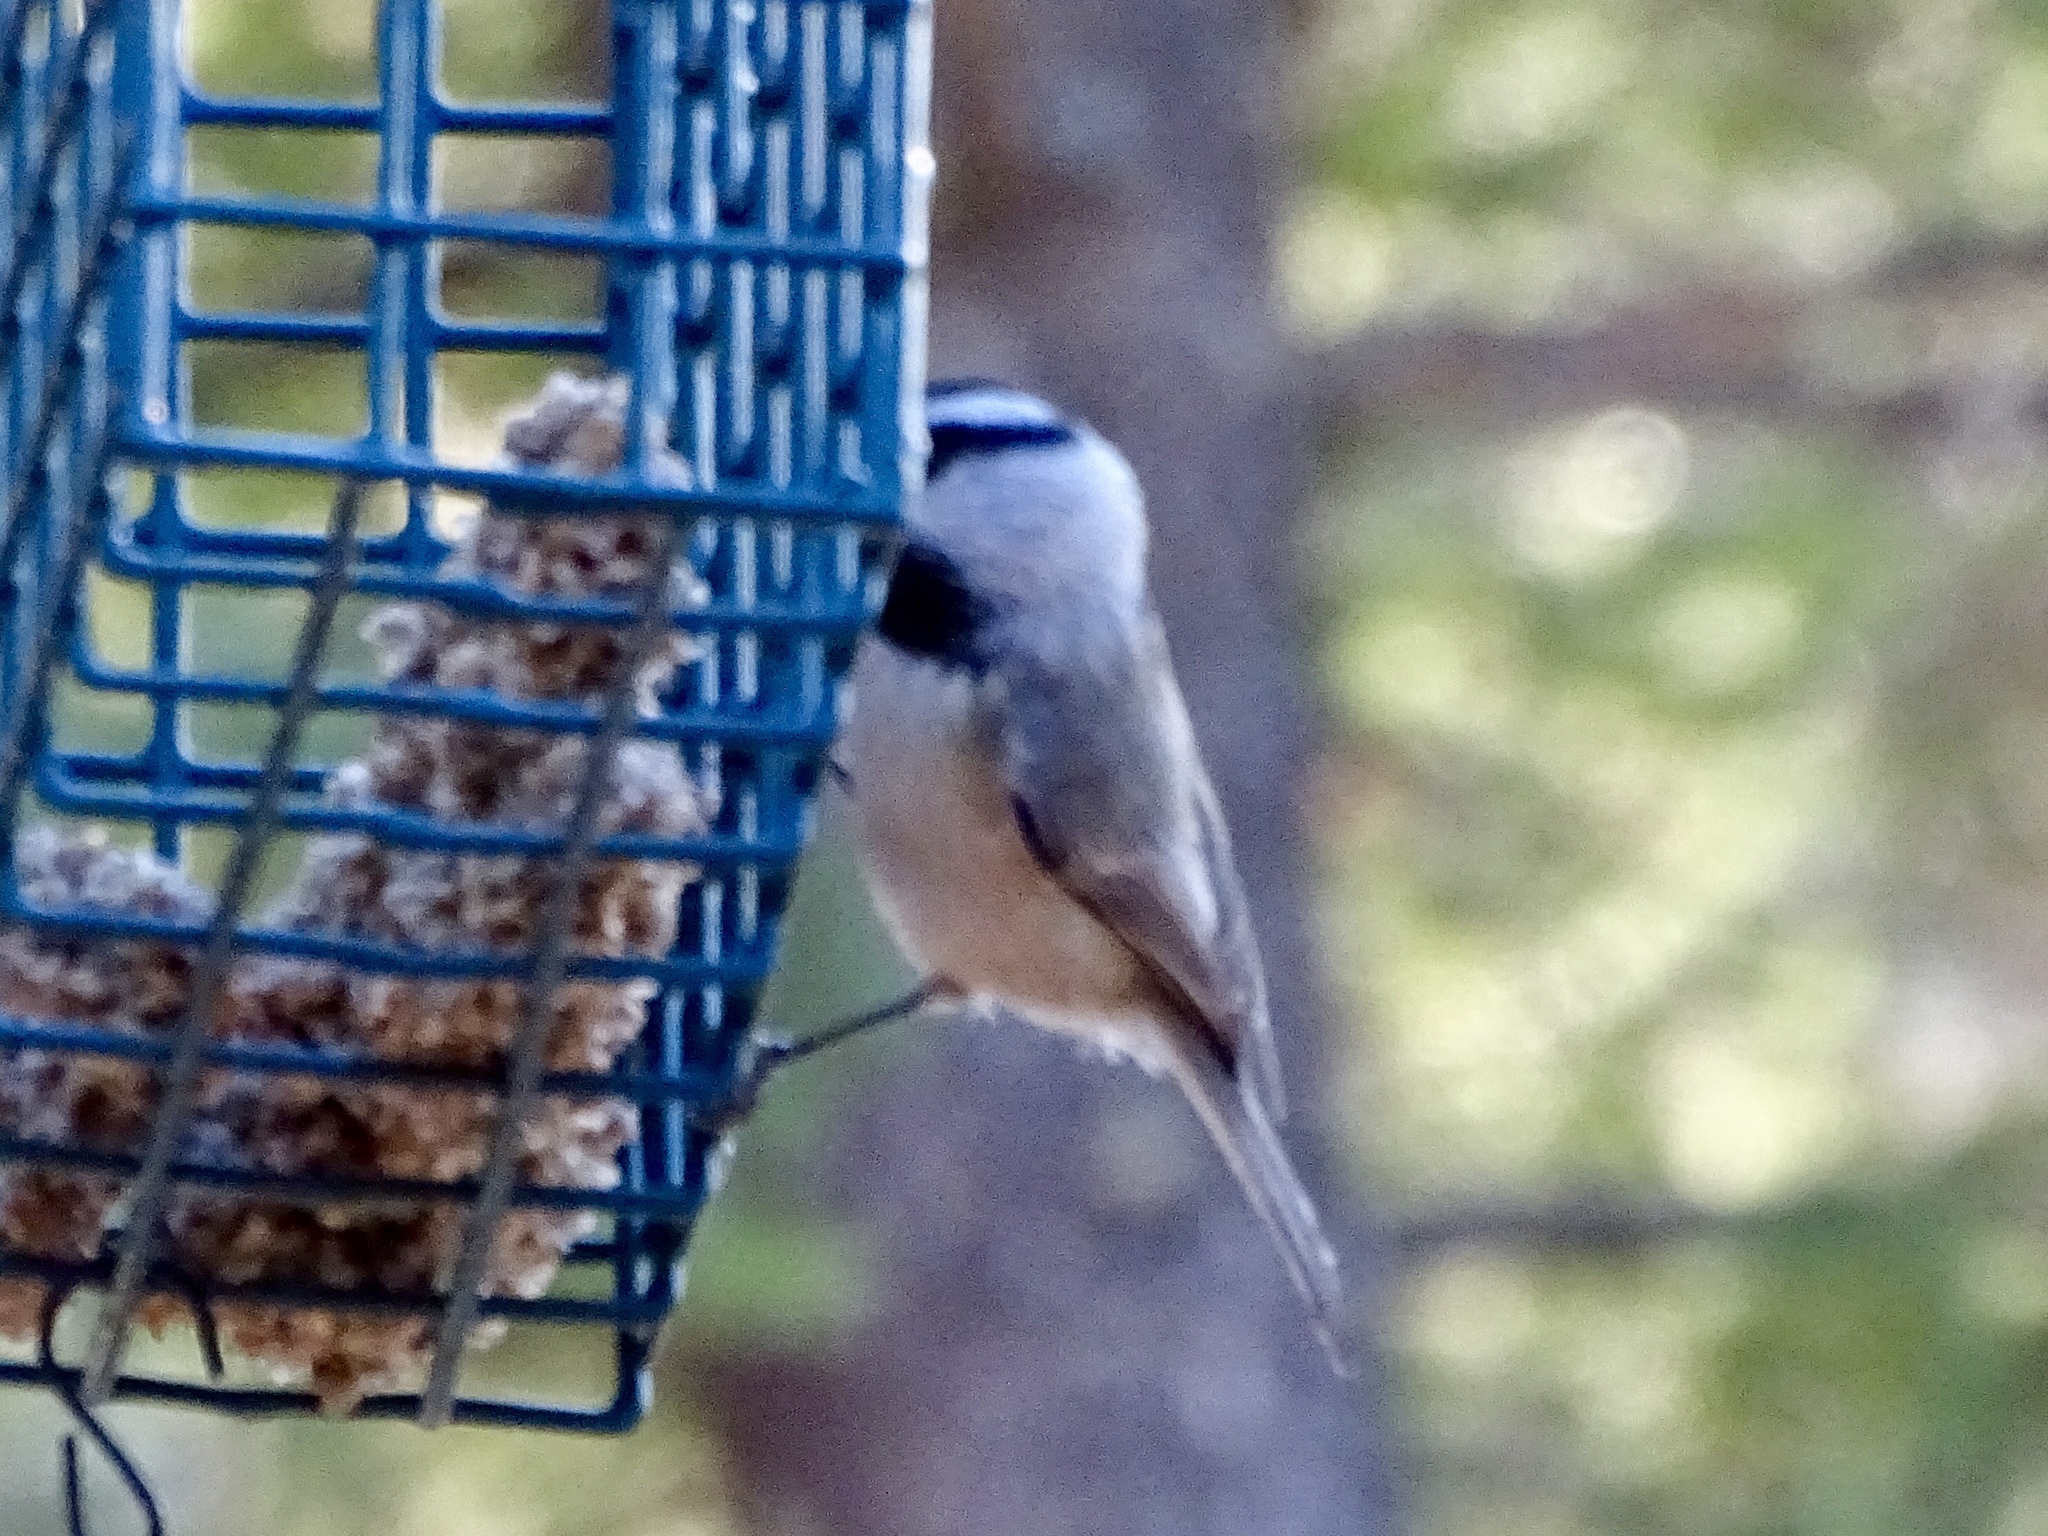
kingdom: Animalia
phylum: Chordata
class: Aves
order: Passeriformes
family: Paridae
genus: Poecile
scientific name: Poecile gambeli
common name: Mountain chickadee
